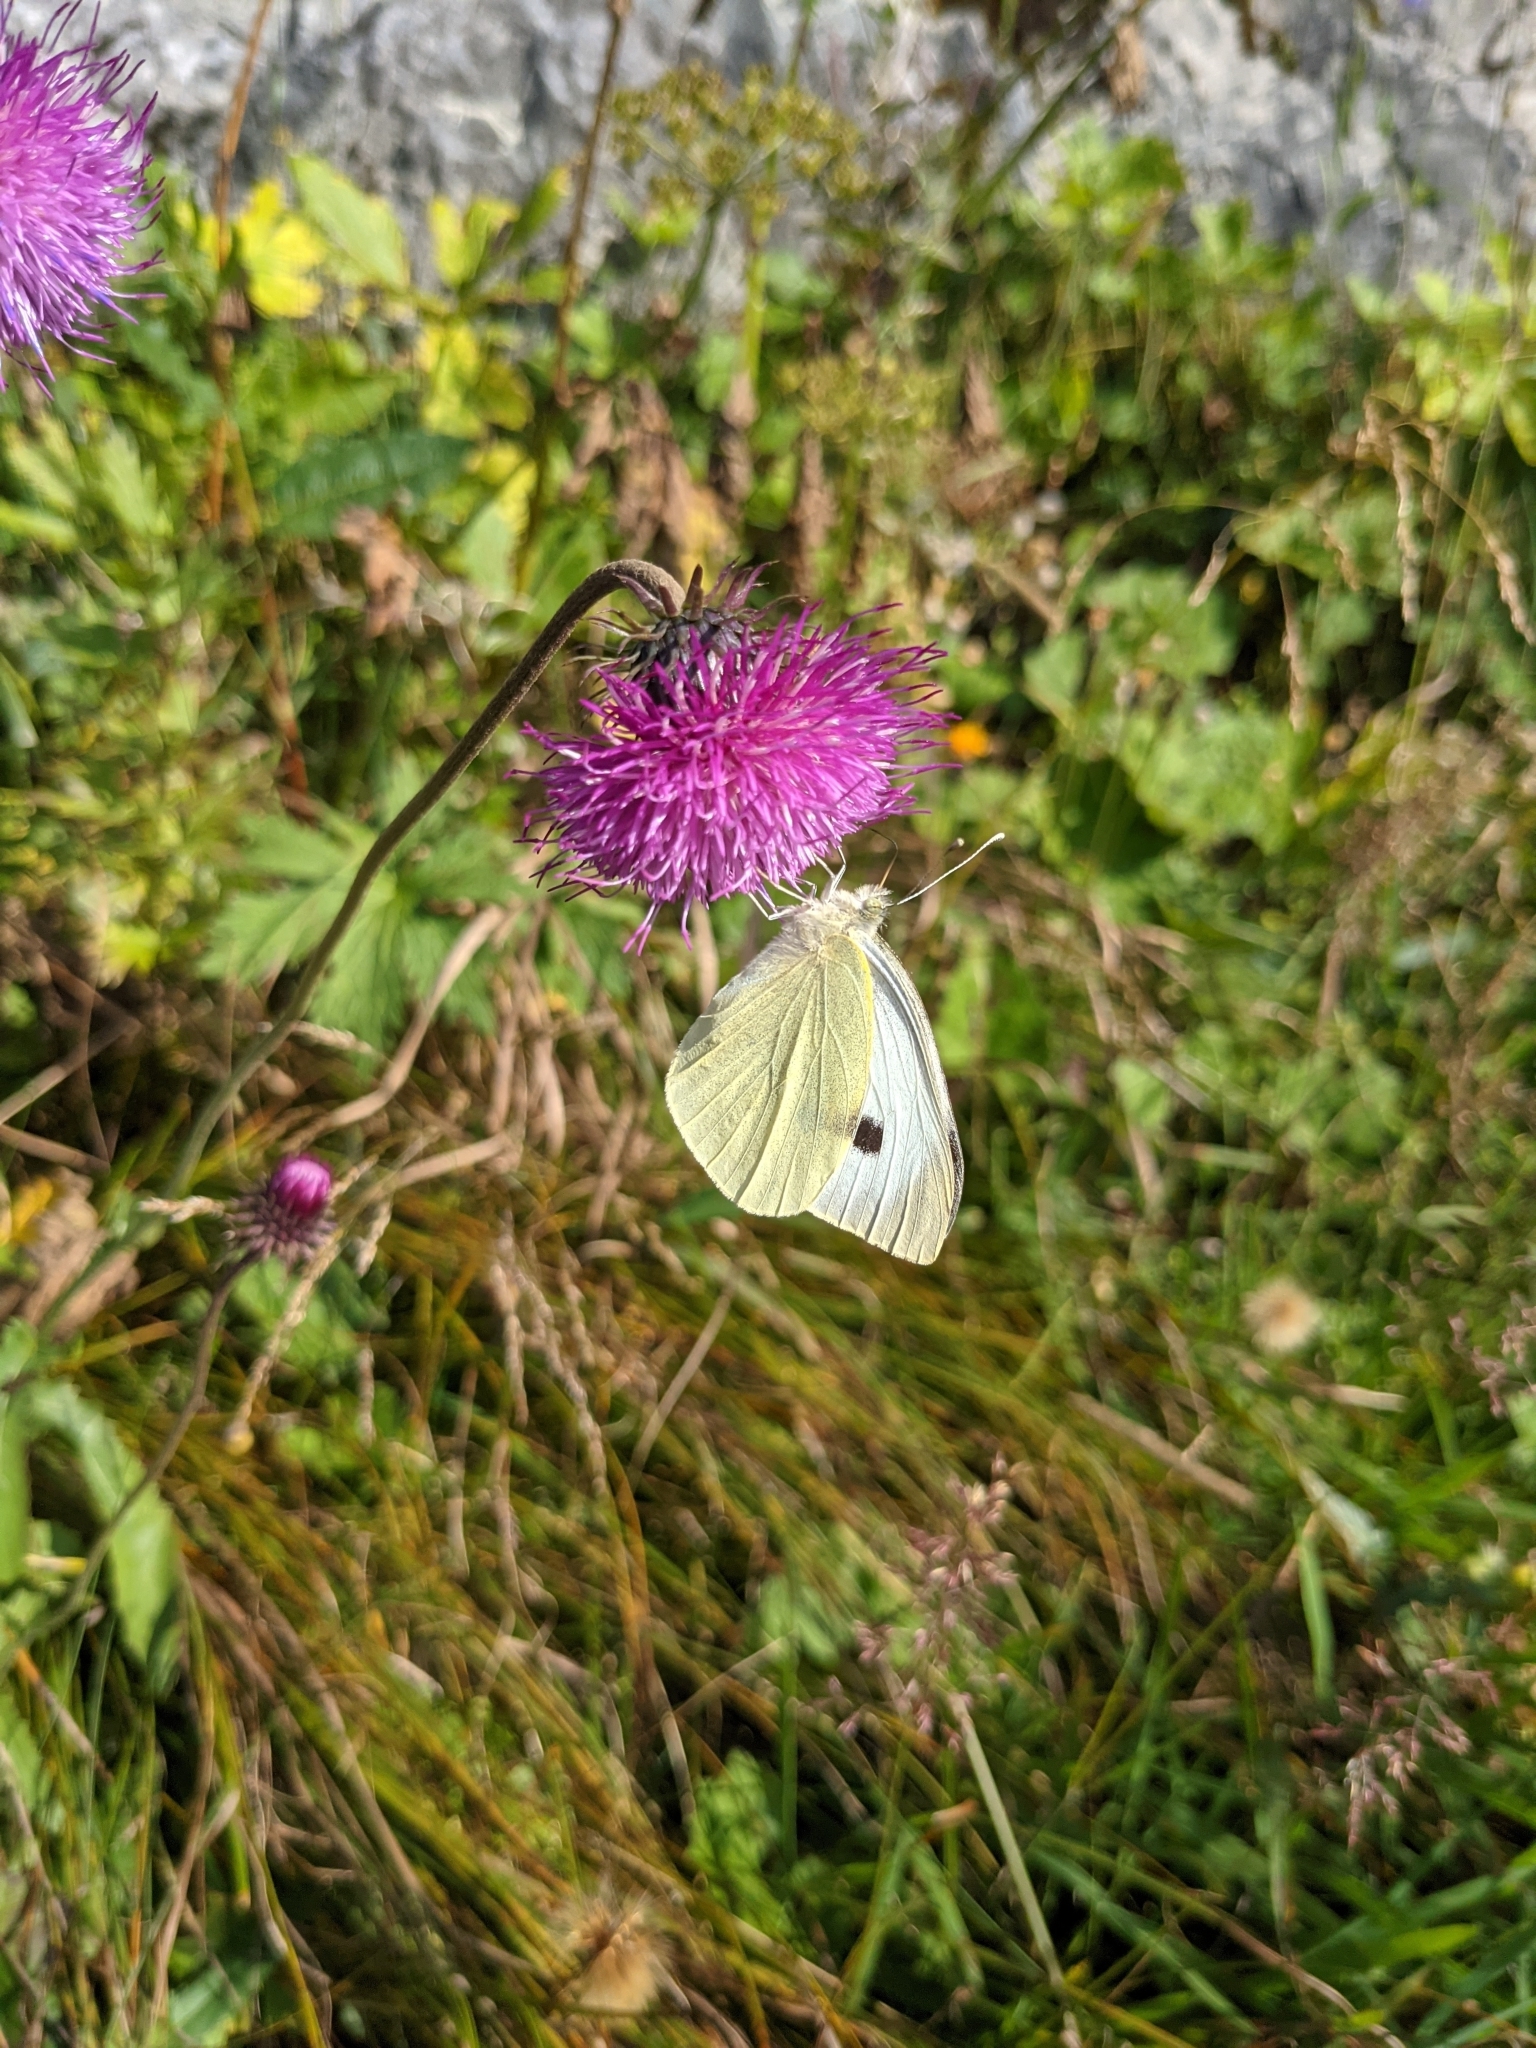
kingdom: Animalia
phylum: Arthropoda
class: Insecta
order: Lepidoptera
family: Pieridae
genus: Pieris
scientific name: Pieris brassicae
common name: Large white
